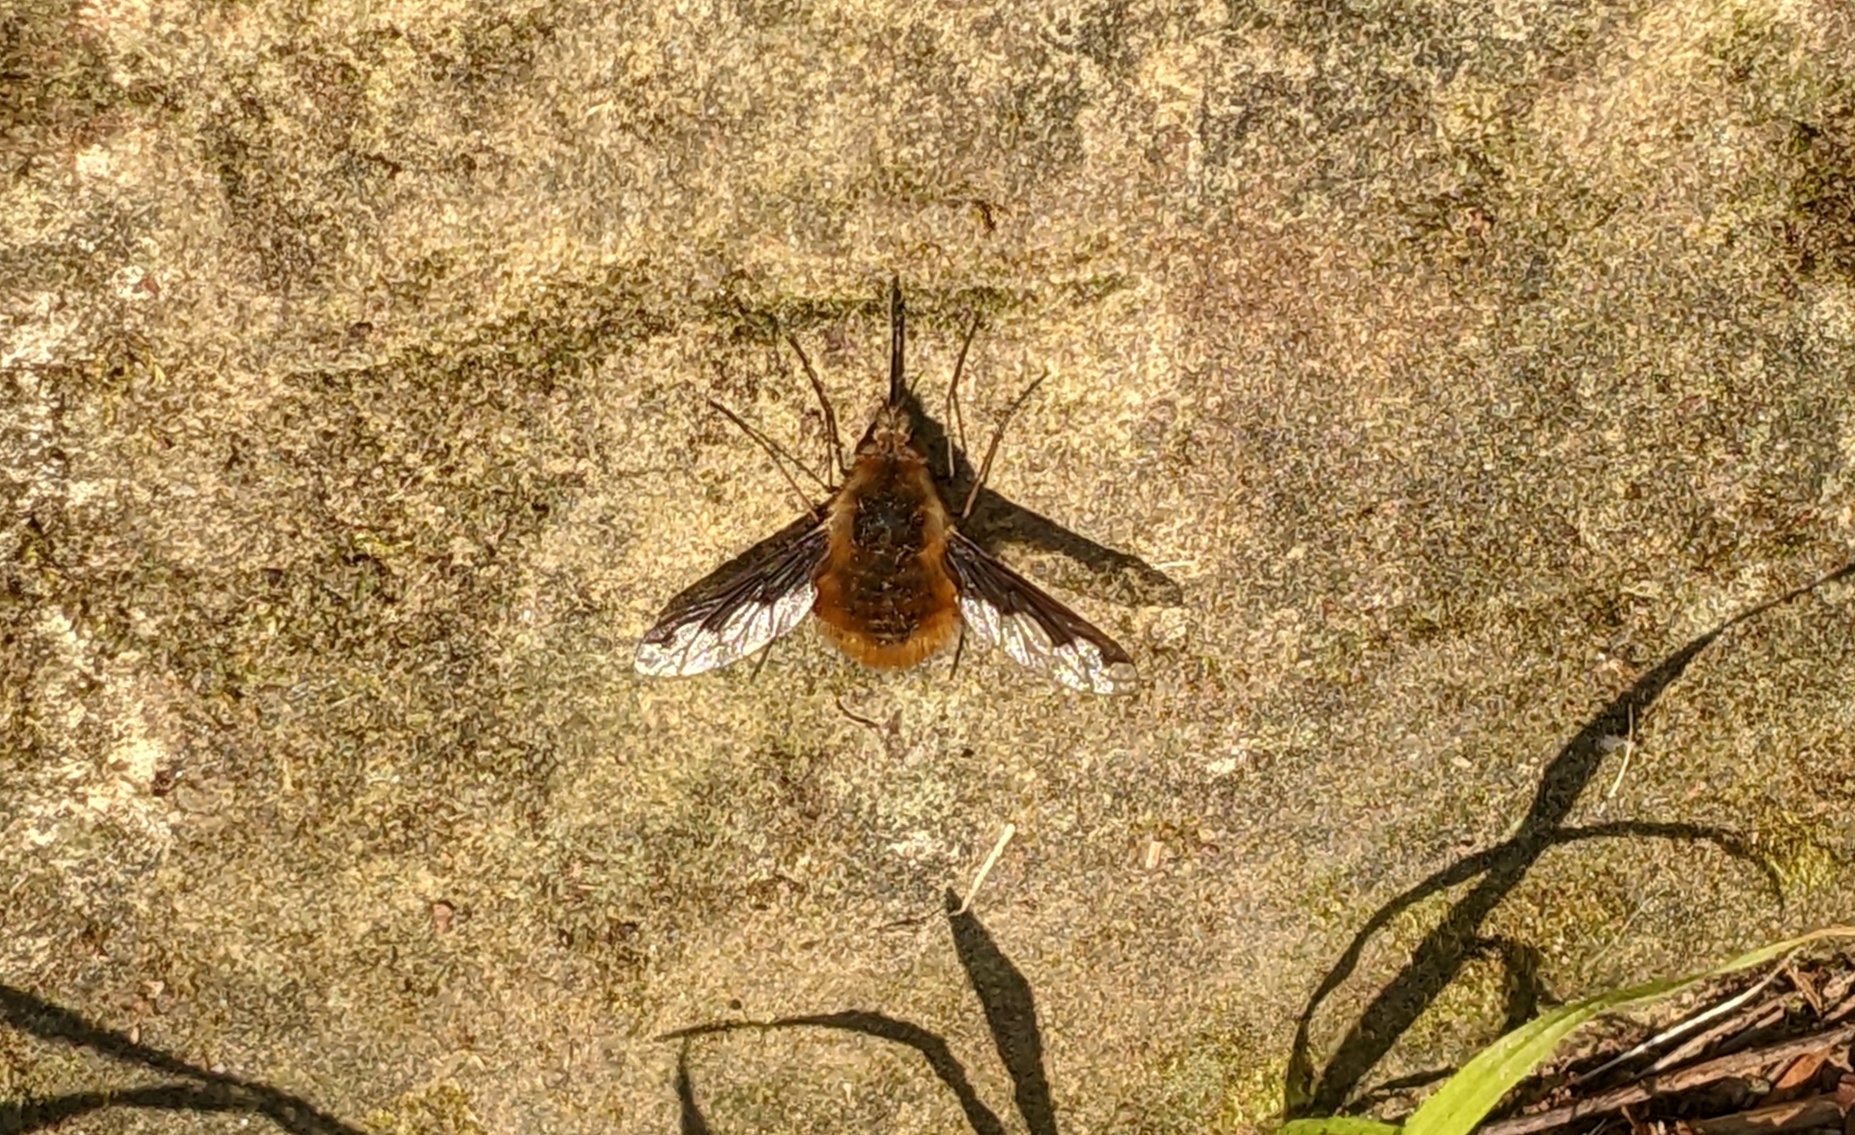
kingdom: Animalia
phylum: Arthropoda
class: Insecta
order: Diptera
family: Bombyliidae
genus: Bombylius
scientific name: Bombylius major
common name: Bee fly
